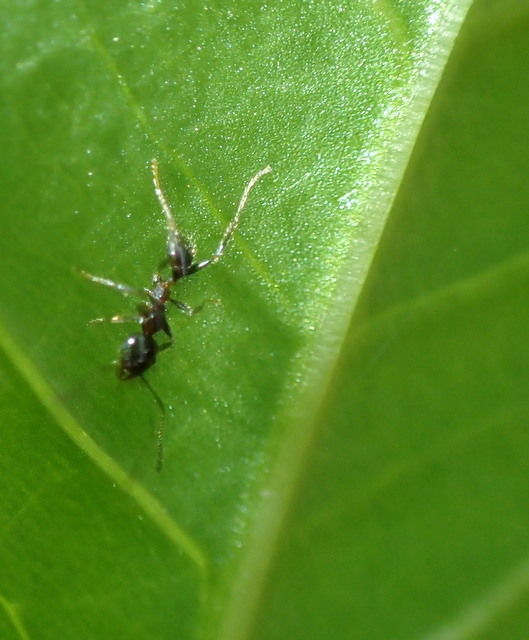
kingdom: Animalia
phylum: Arthropoda
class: Insecta
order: Hymenoptera
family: Formicidae
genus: Pheidole
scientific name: Pheidole dentata
